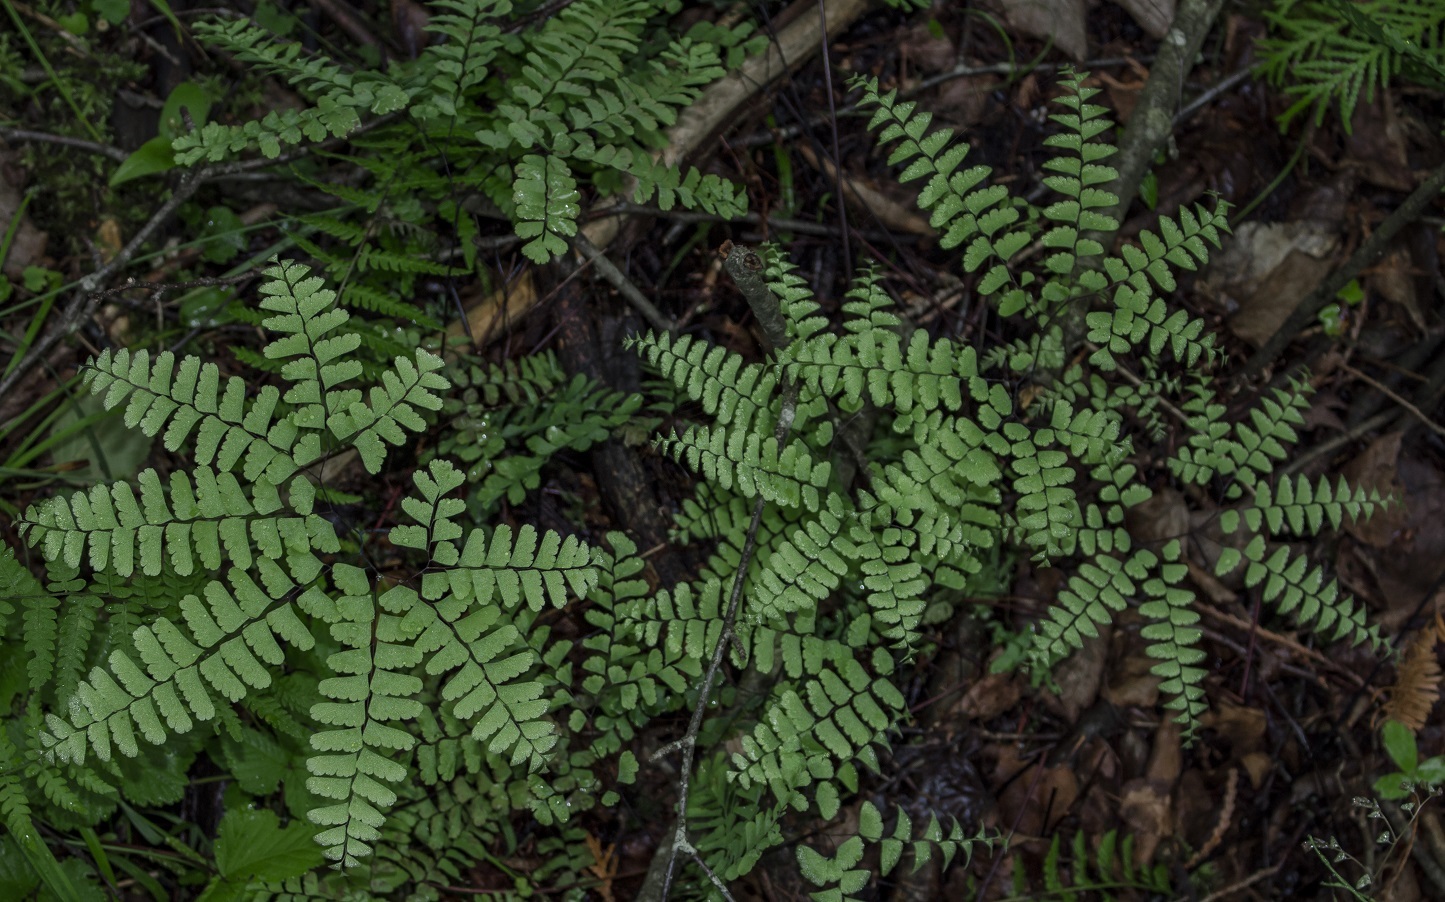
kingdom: Plantae
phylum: Tracheophyta
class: Polypodiopsida
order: Polypodiales
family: Pteridaceae
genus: Adiantum
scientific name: Adiantum pedatum
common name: Five-finger fern
